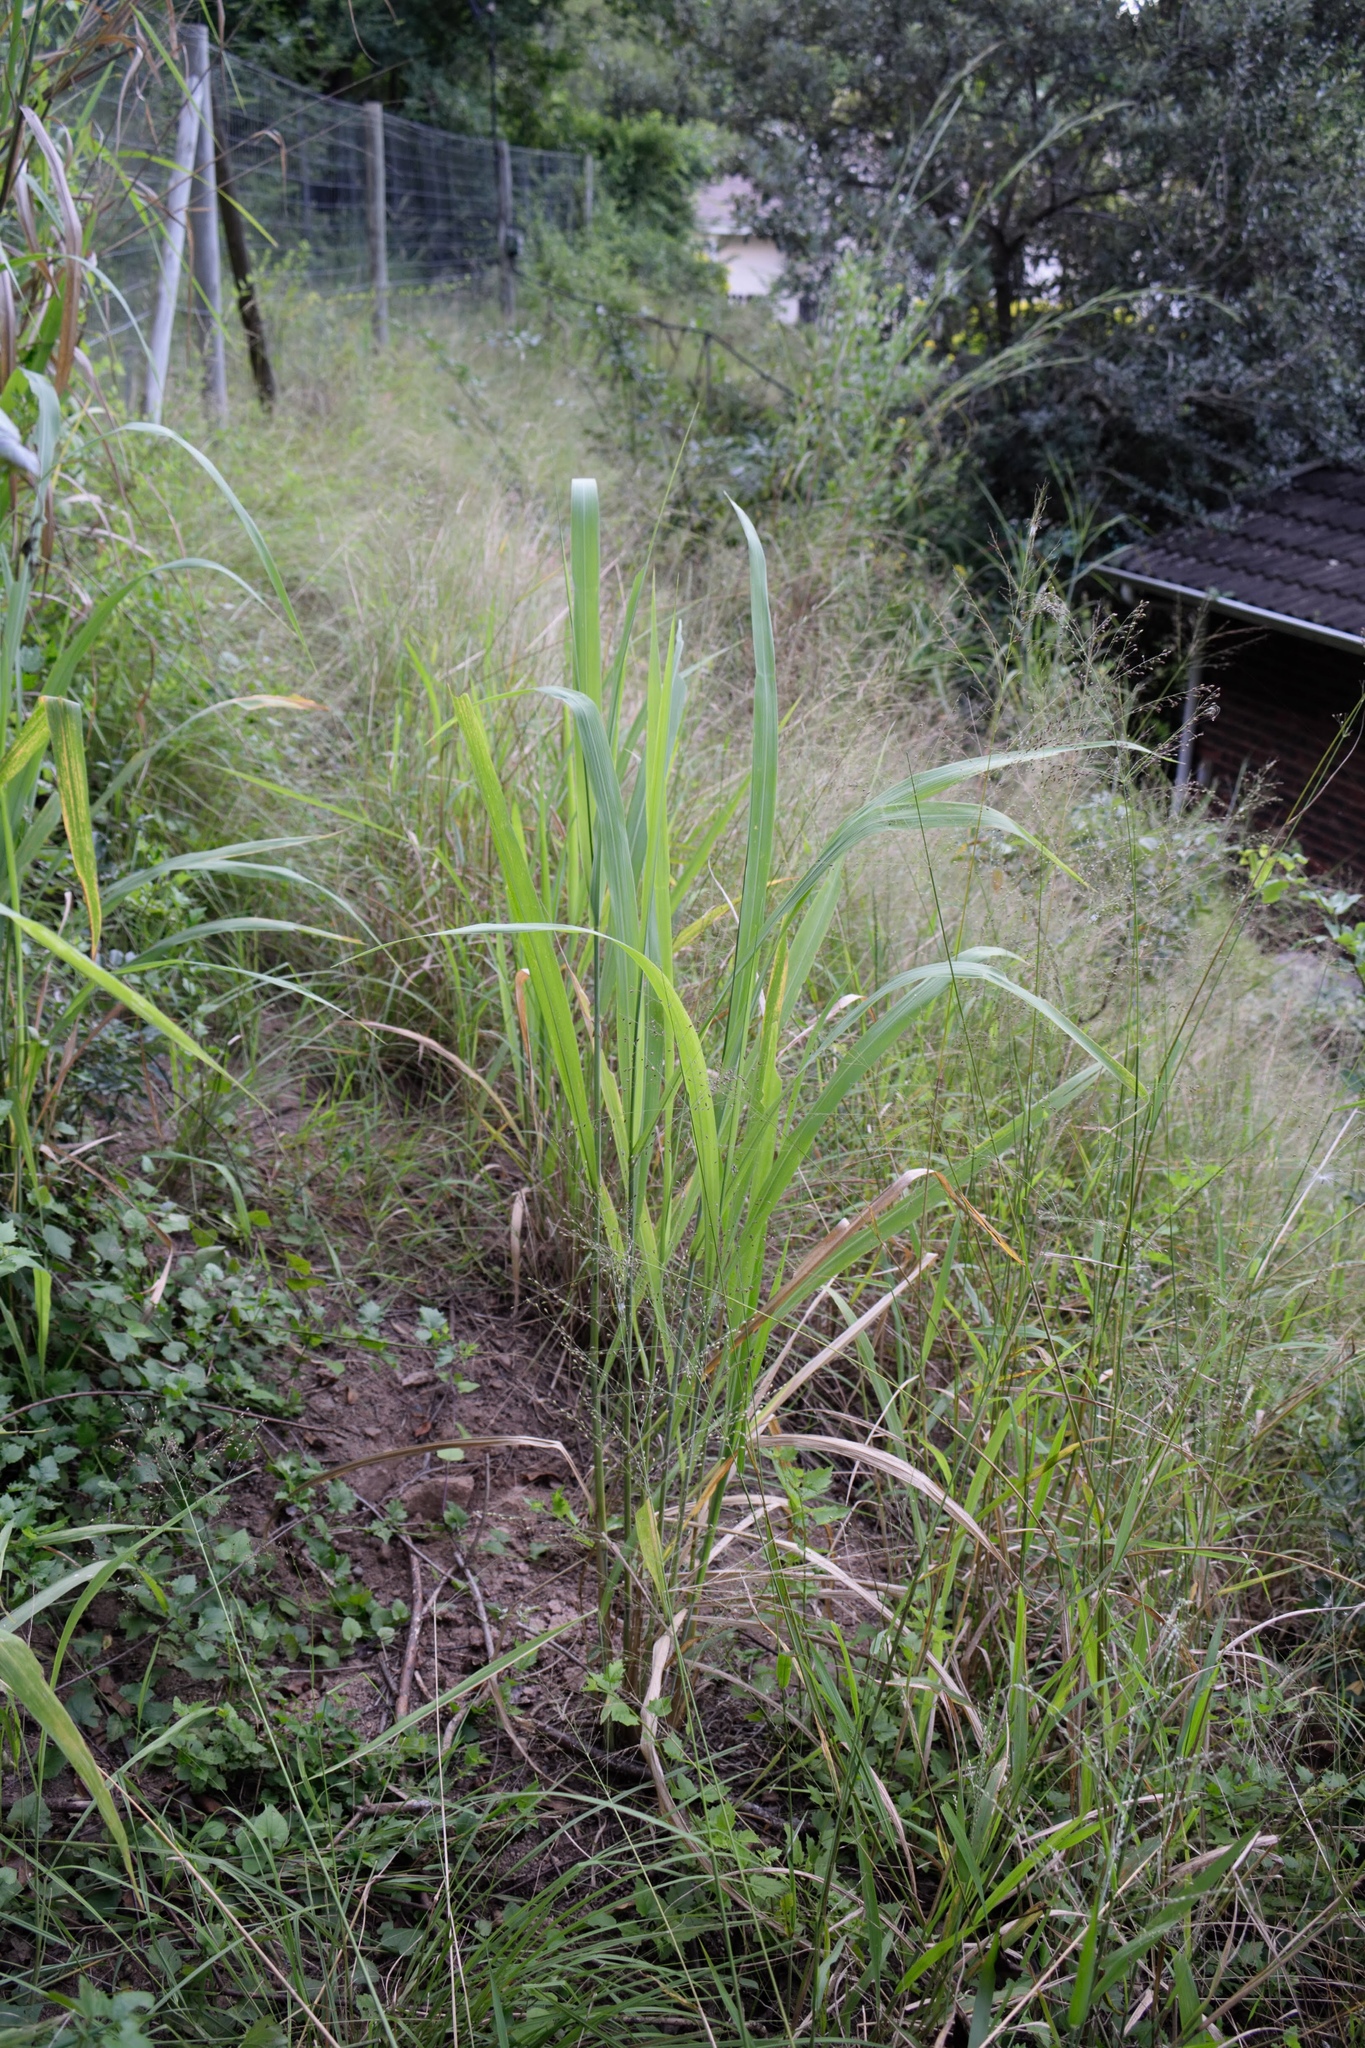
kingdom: Plantae
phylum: Tracheophyta
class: Liliopsida
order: Poales
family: Poaceae
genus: Megathyrsus
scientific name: Megathyrsus maximus
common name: Guineagrass
